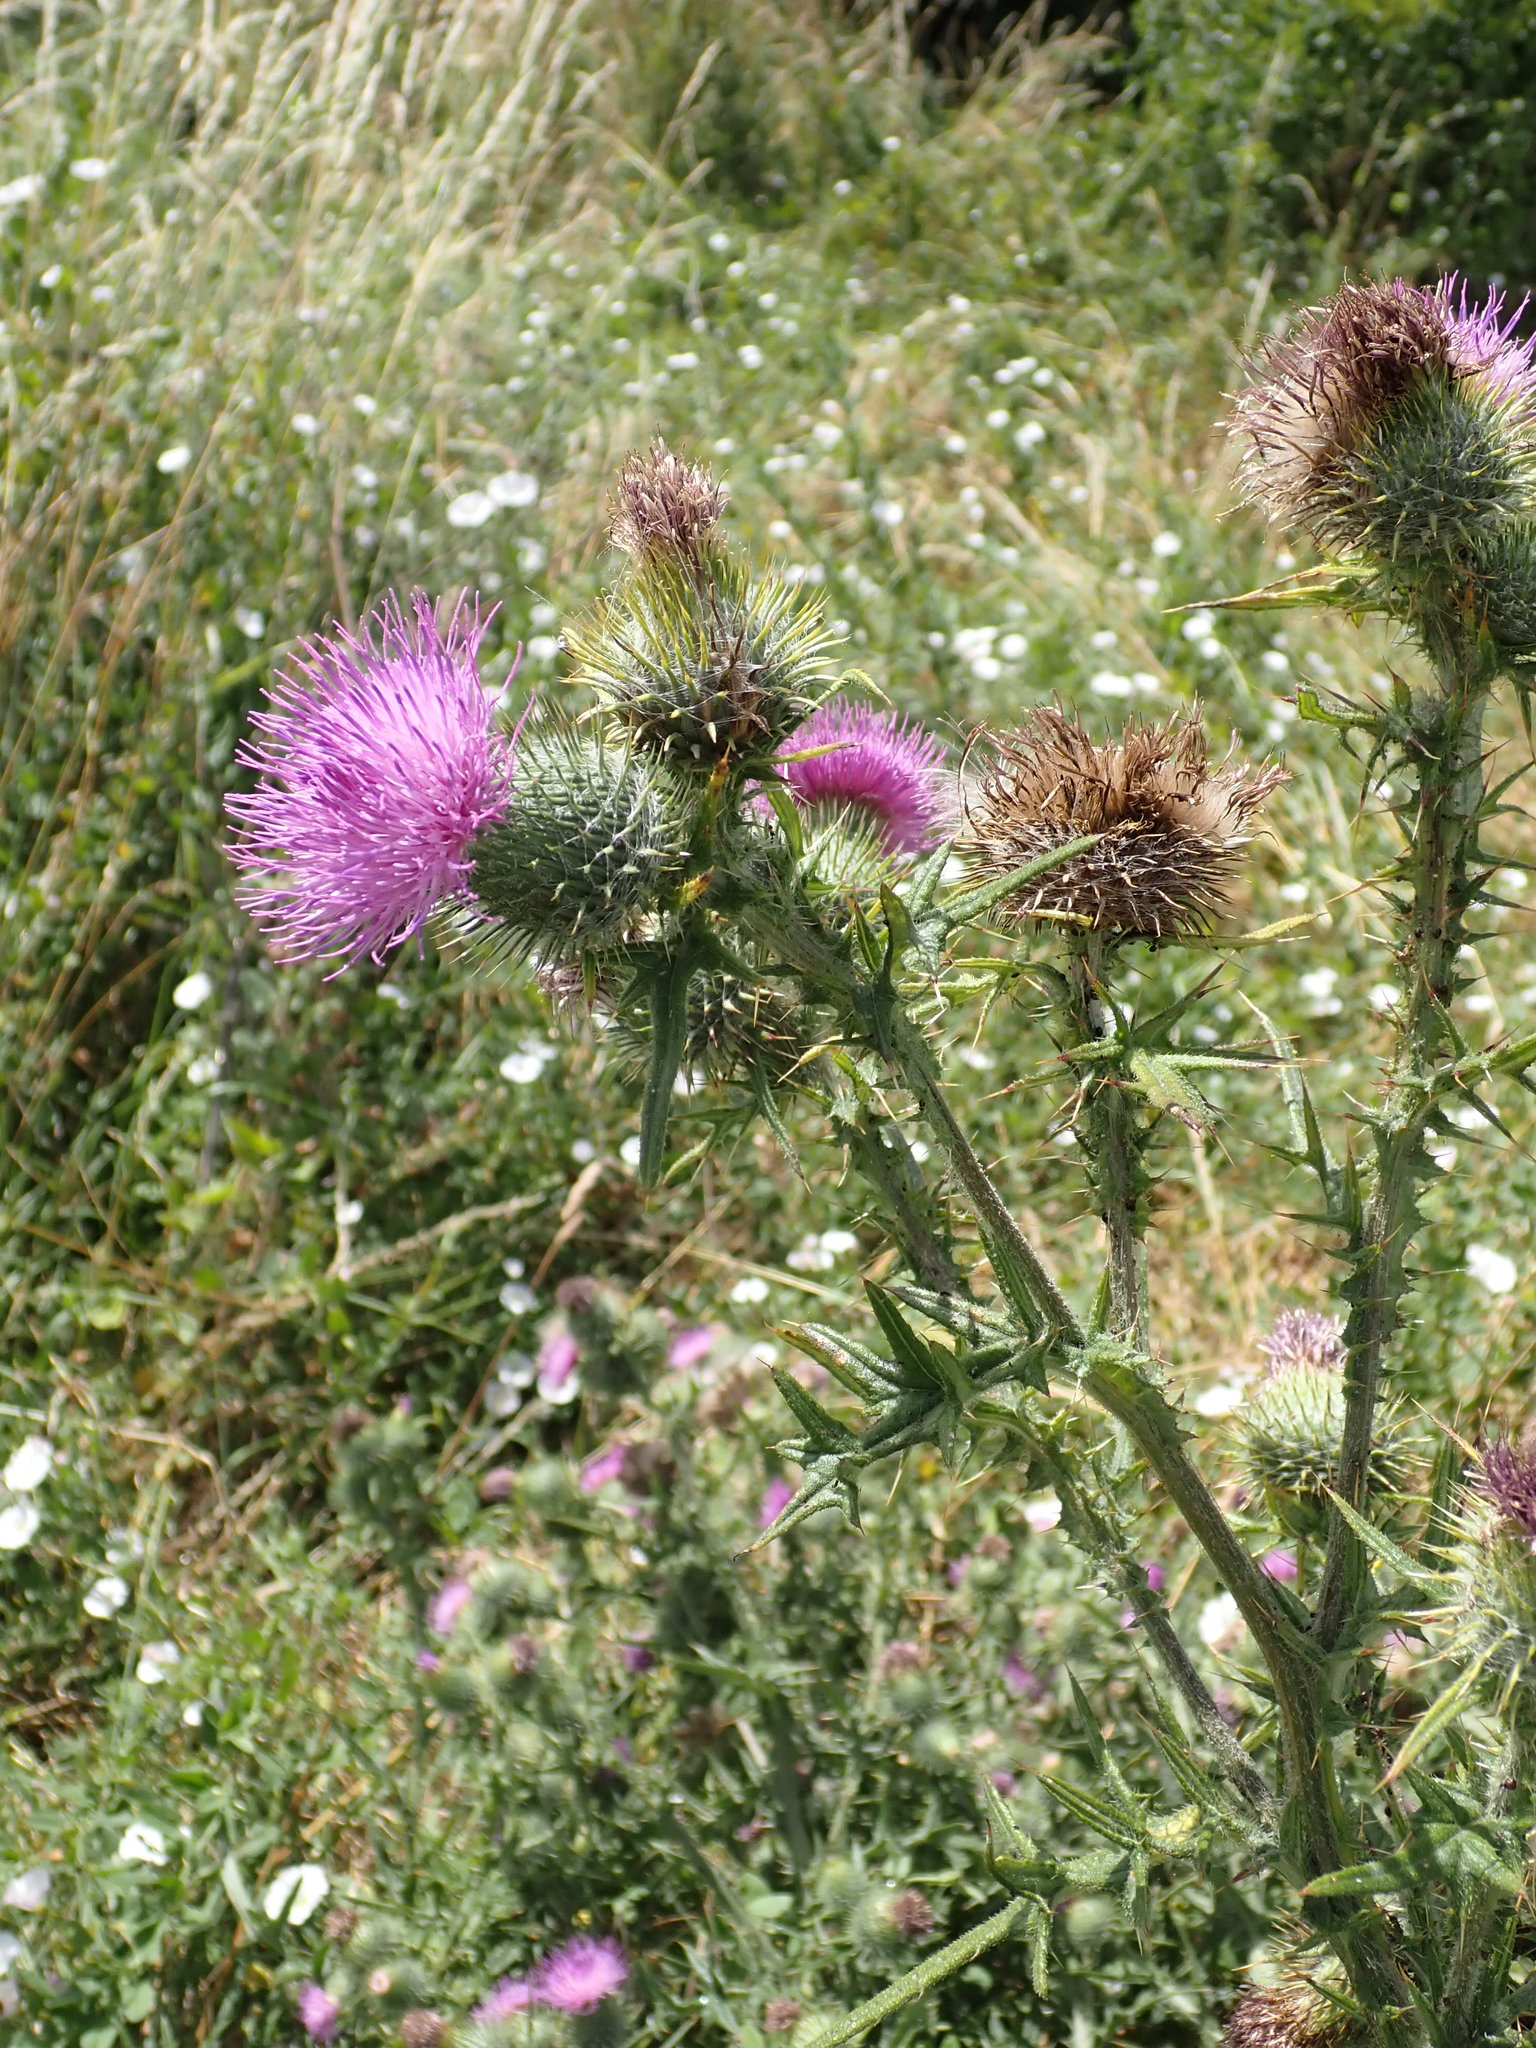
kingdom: Plantae
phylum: Tracheophyta
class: Magnoliopsida
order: Asterales
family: Asteraceae
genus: Cirsium
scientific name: Cirsium vulgare
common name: Bull thistle
